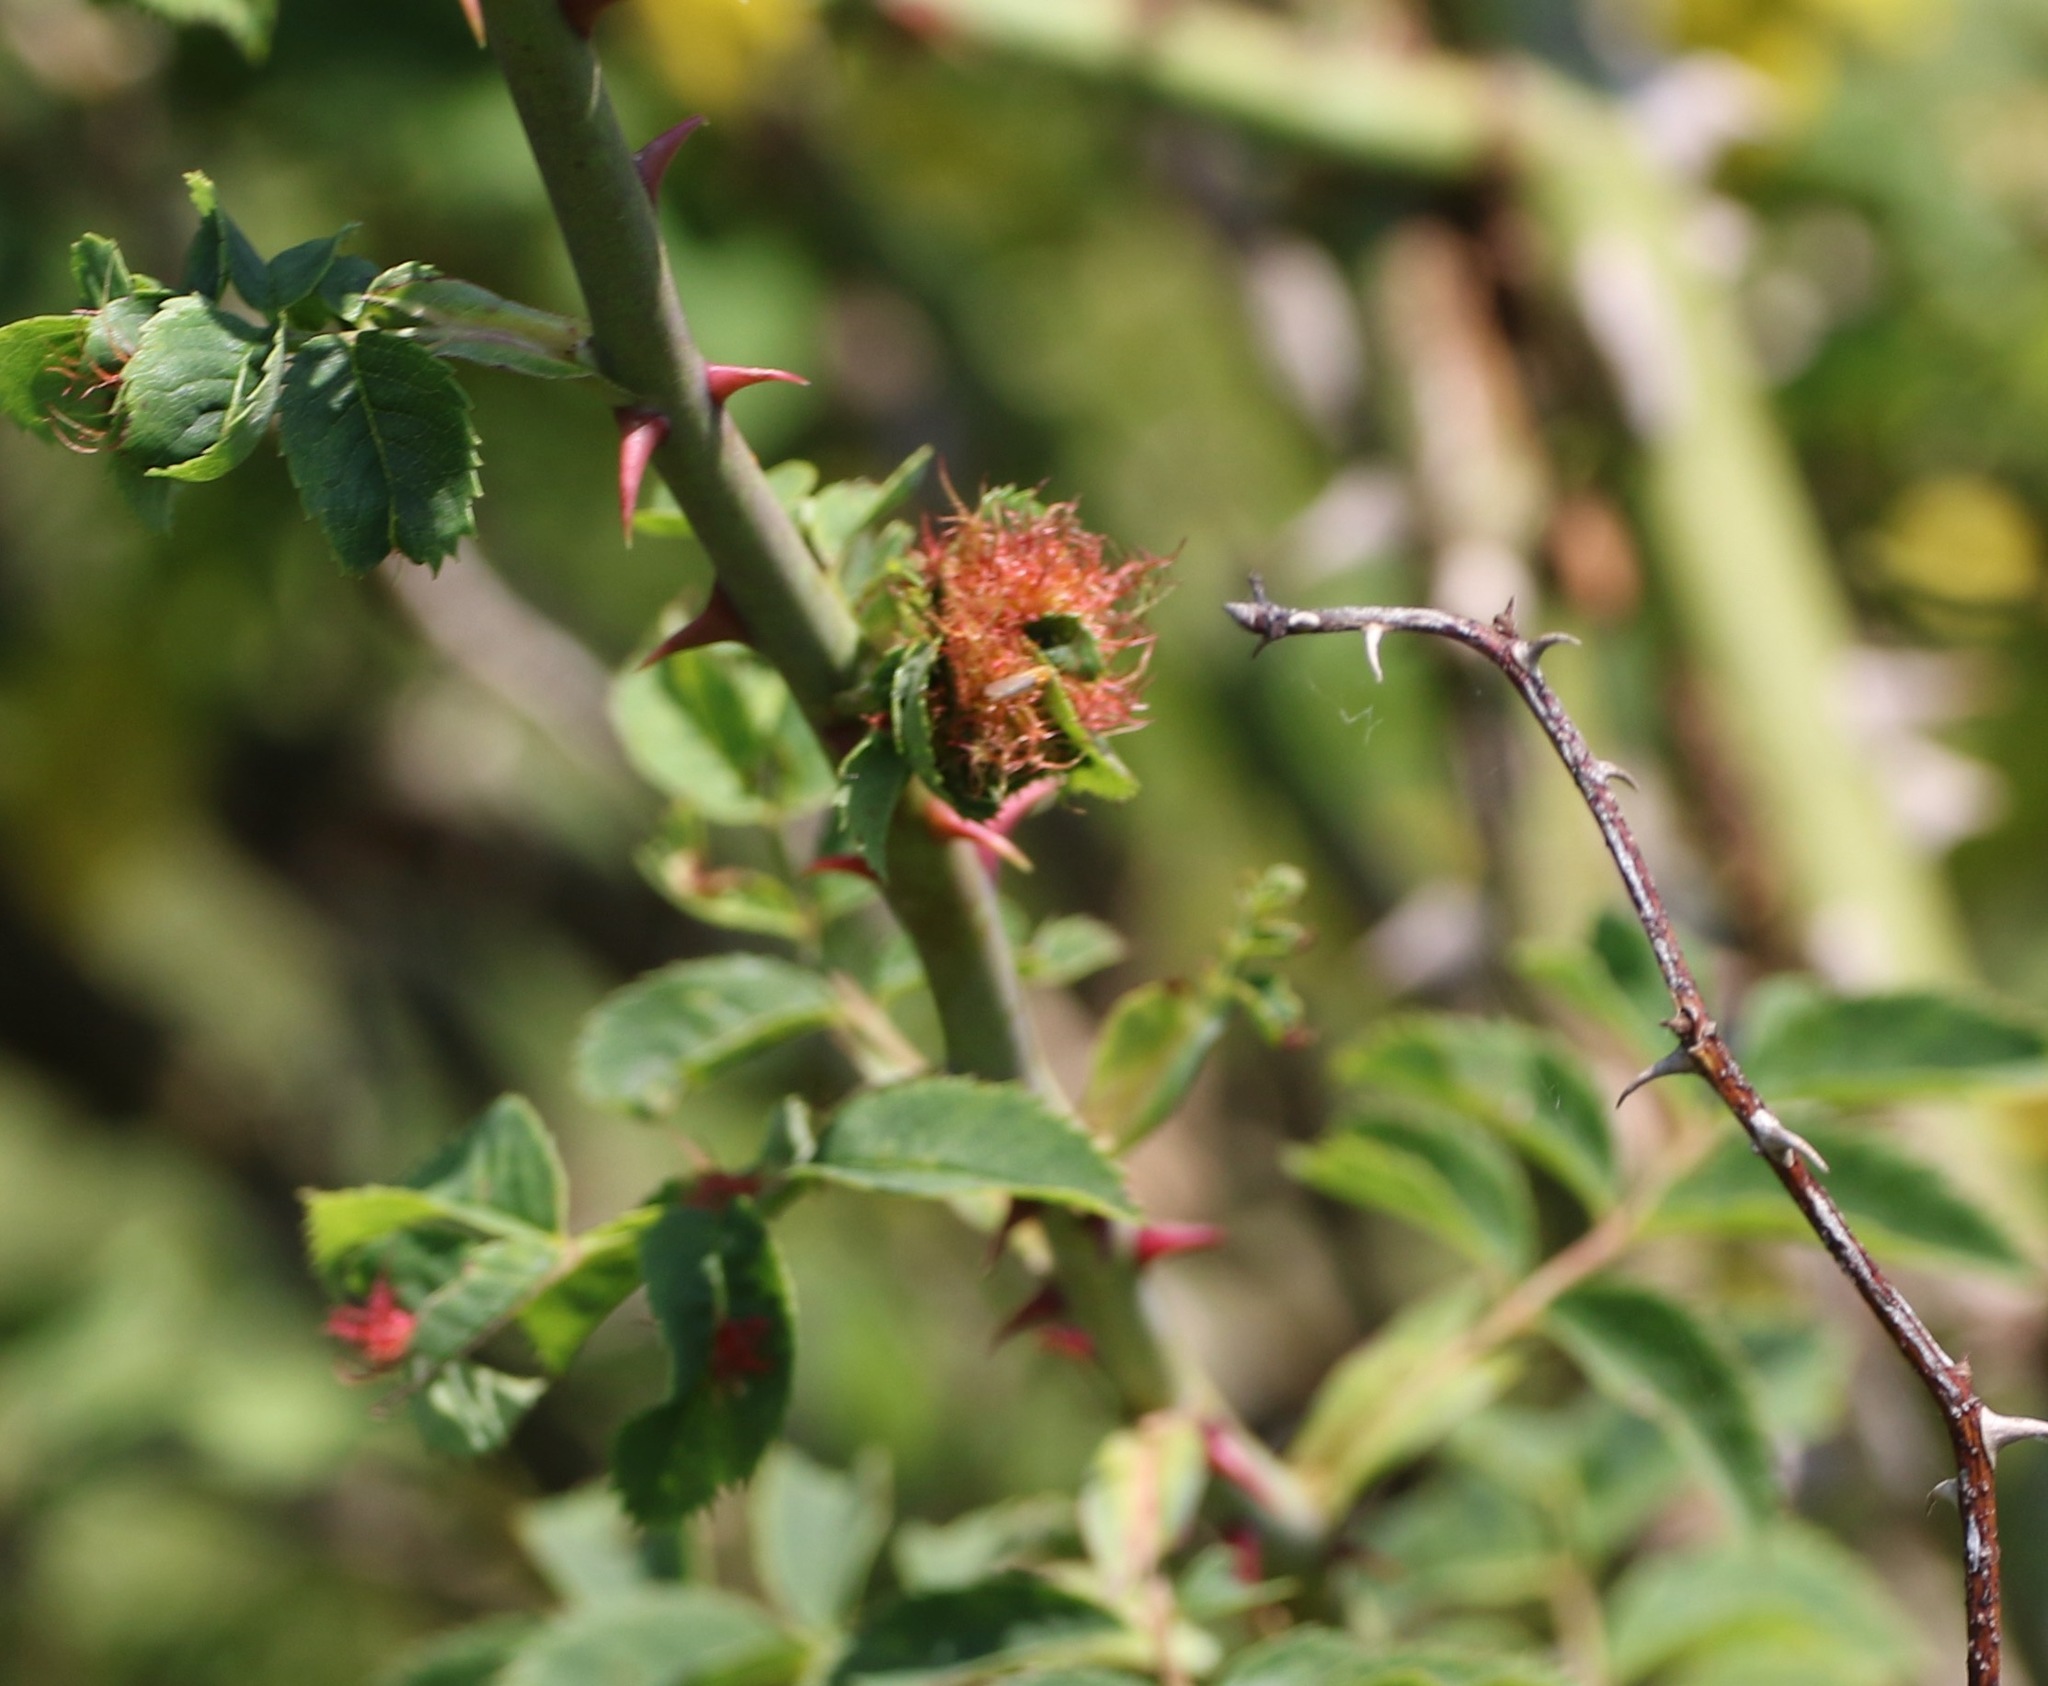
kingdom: Animalia
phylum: Arthropoda
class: Insecta
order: Hymenoptera
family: Cynipidae
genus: Diplolepis
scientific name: Diplolepis rosae
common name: Bedeguar gall
